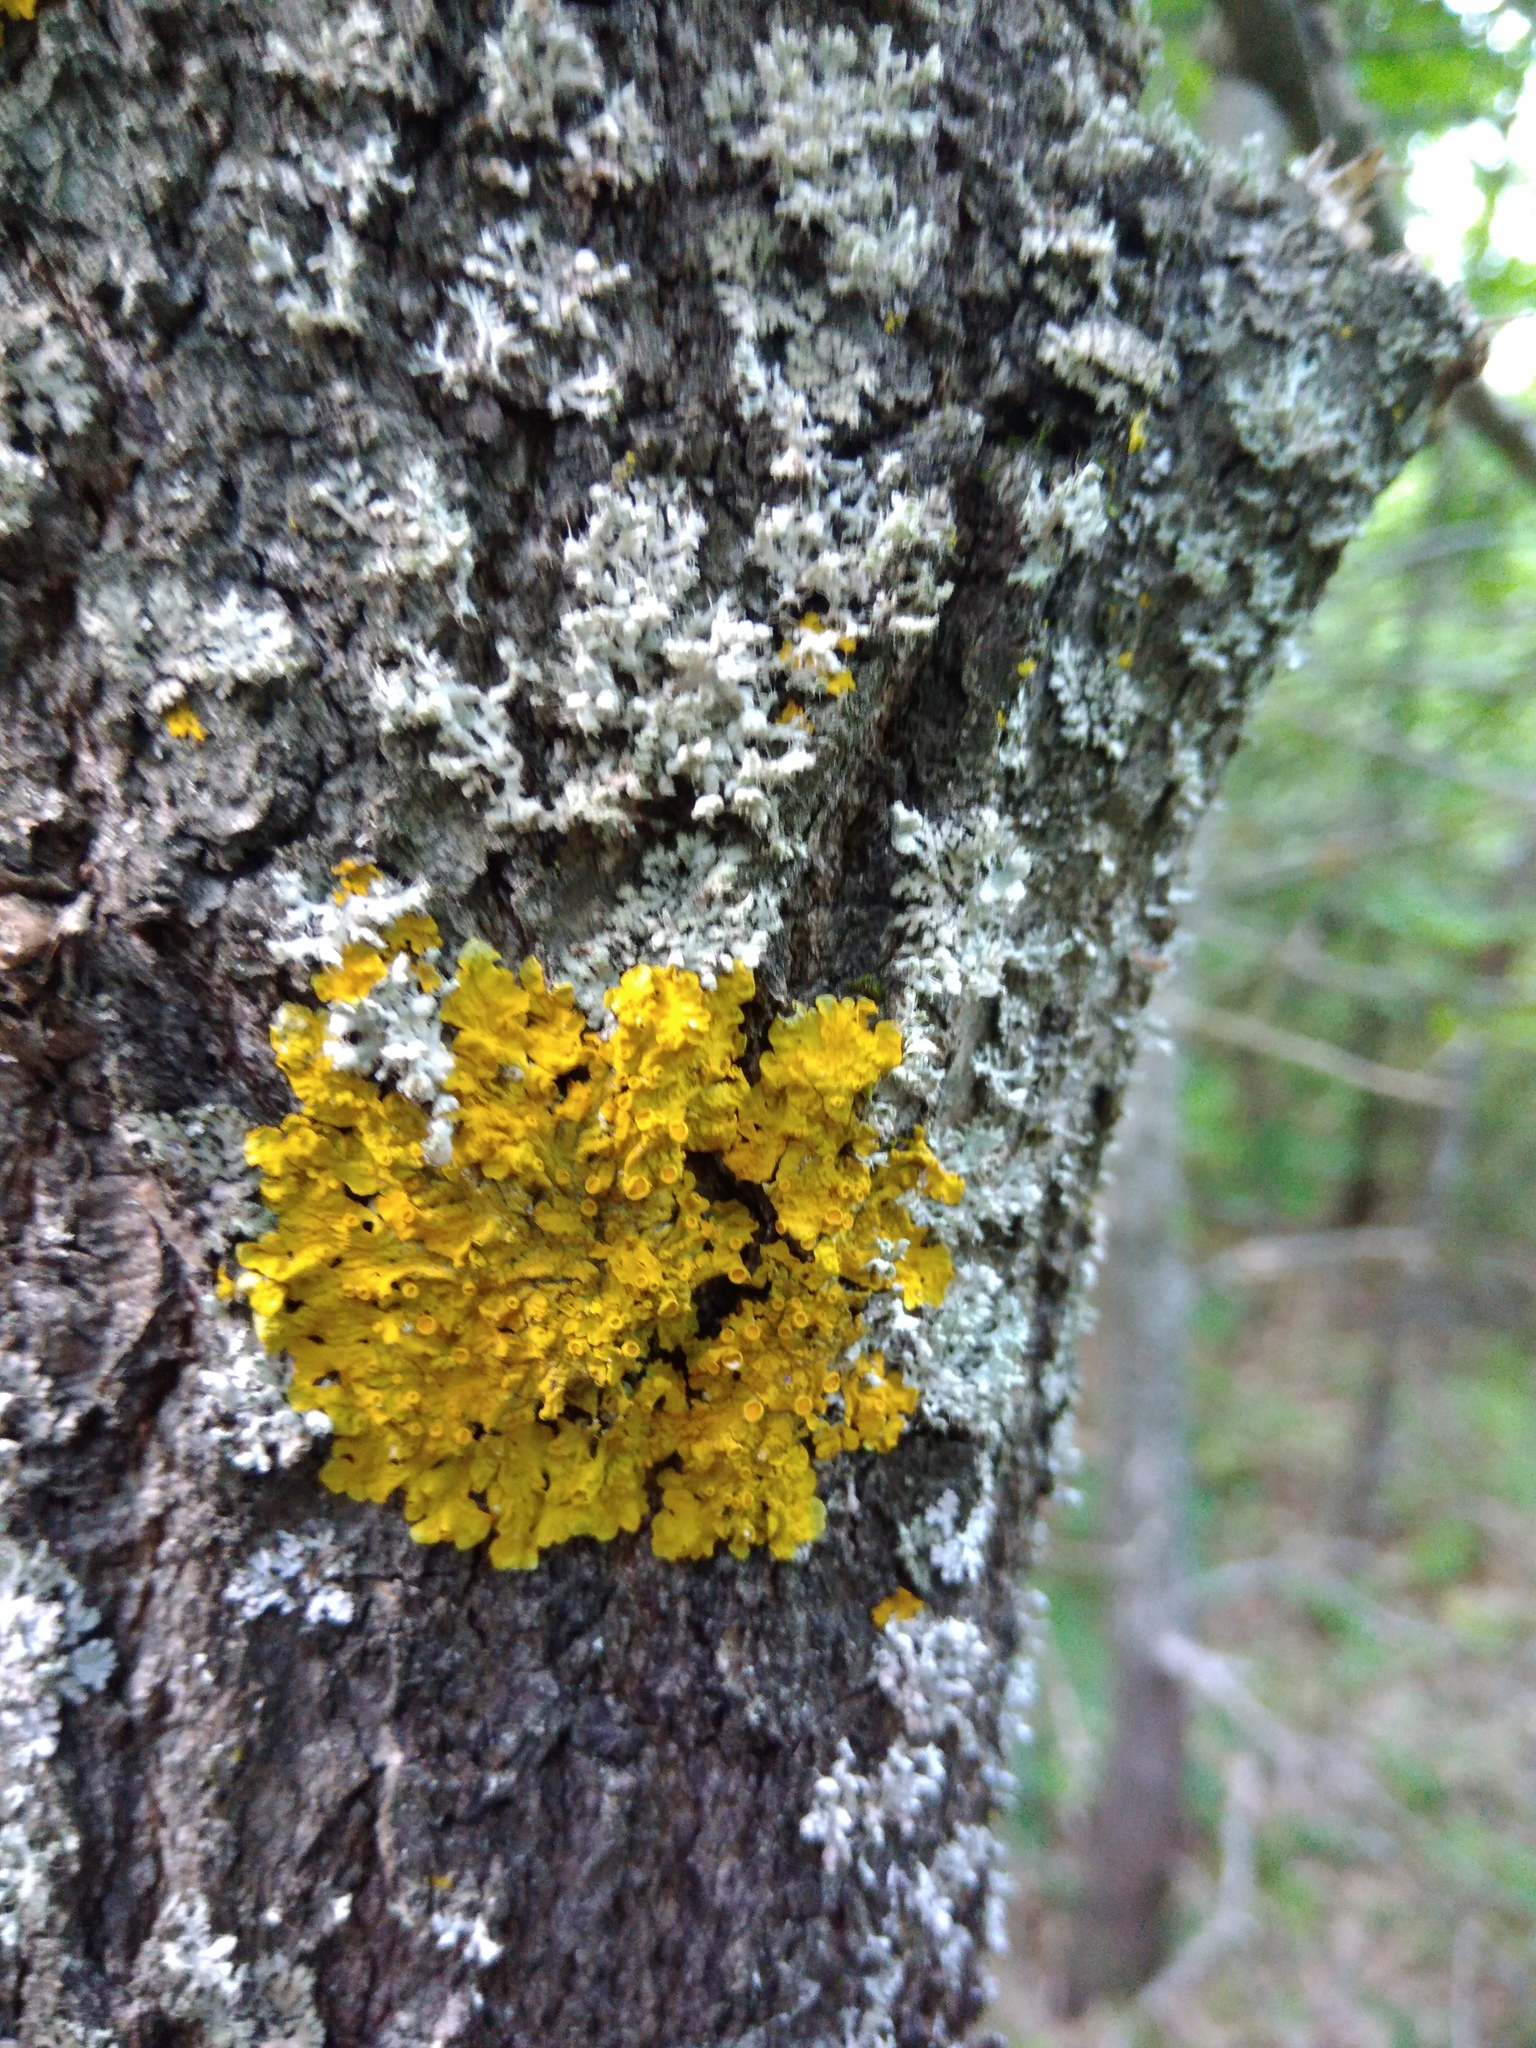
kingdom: Fungi
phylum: Ascomycota
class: Lecanoromycetes
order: Teloschistales
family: Teloschistaceae
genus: Xanthoria
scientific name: Xanthoria parietina
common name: Common orange lichen
